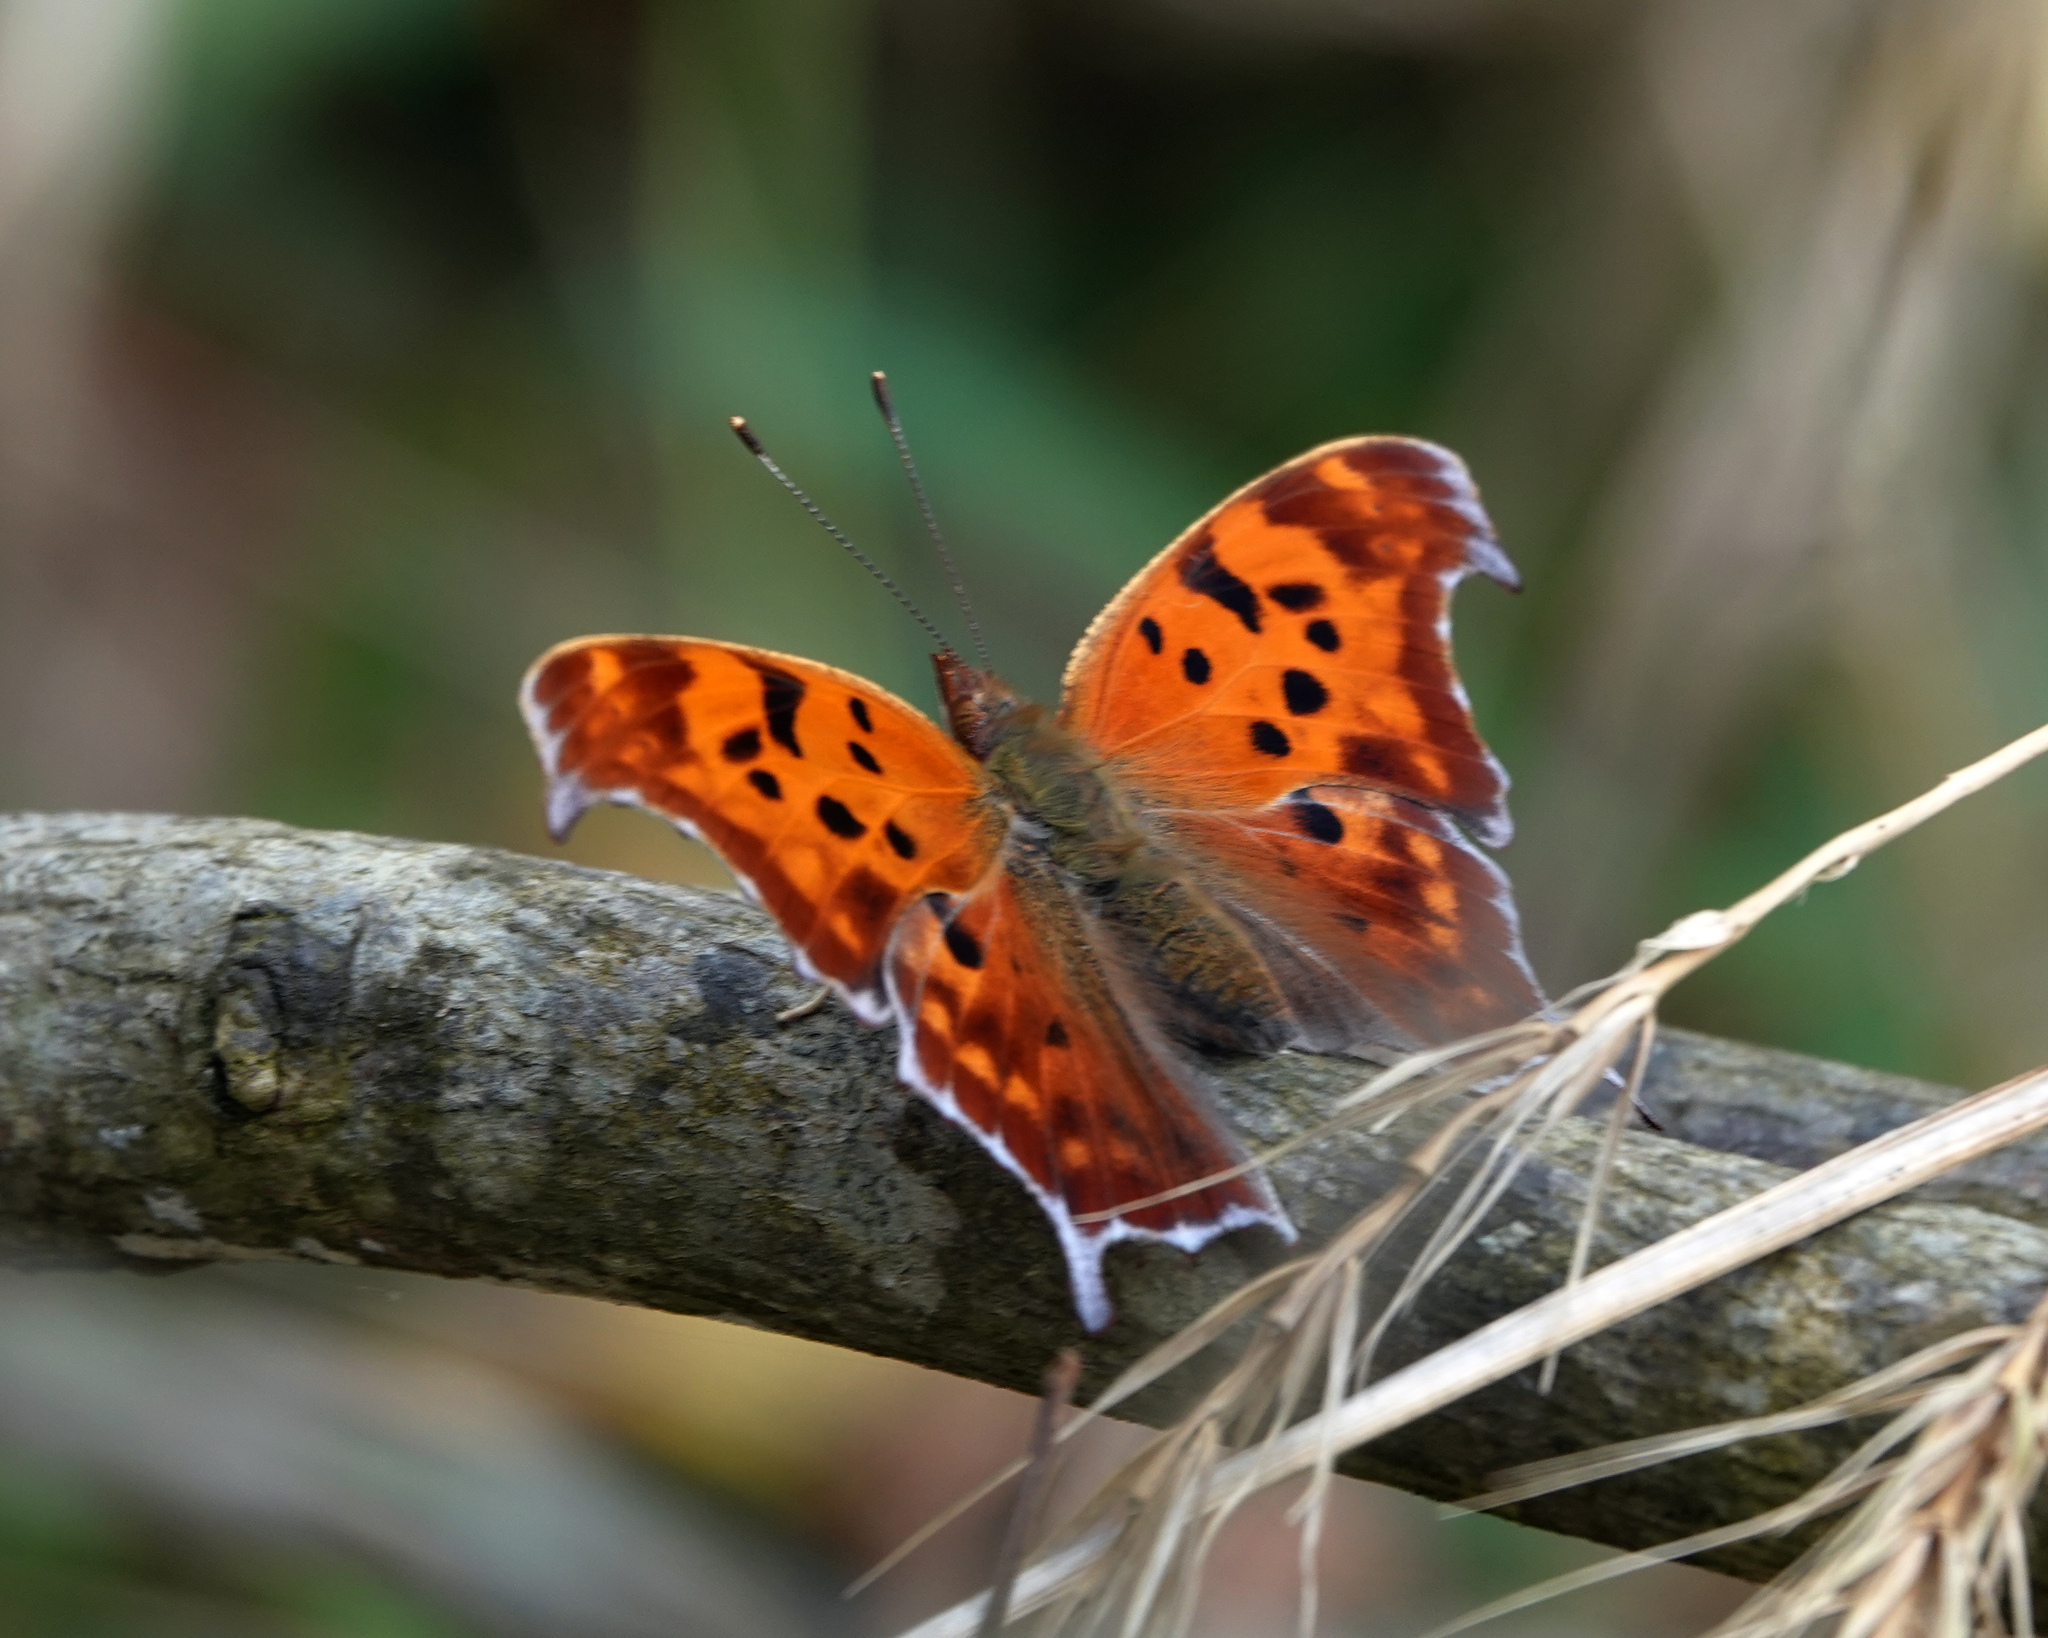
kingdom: Animalia
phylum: Arthropoda
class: Insecta
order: Lepidoptera
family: Nymphalidae
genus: Polygonia
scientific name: Polygonia interrogationis
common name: Question mark
